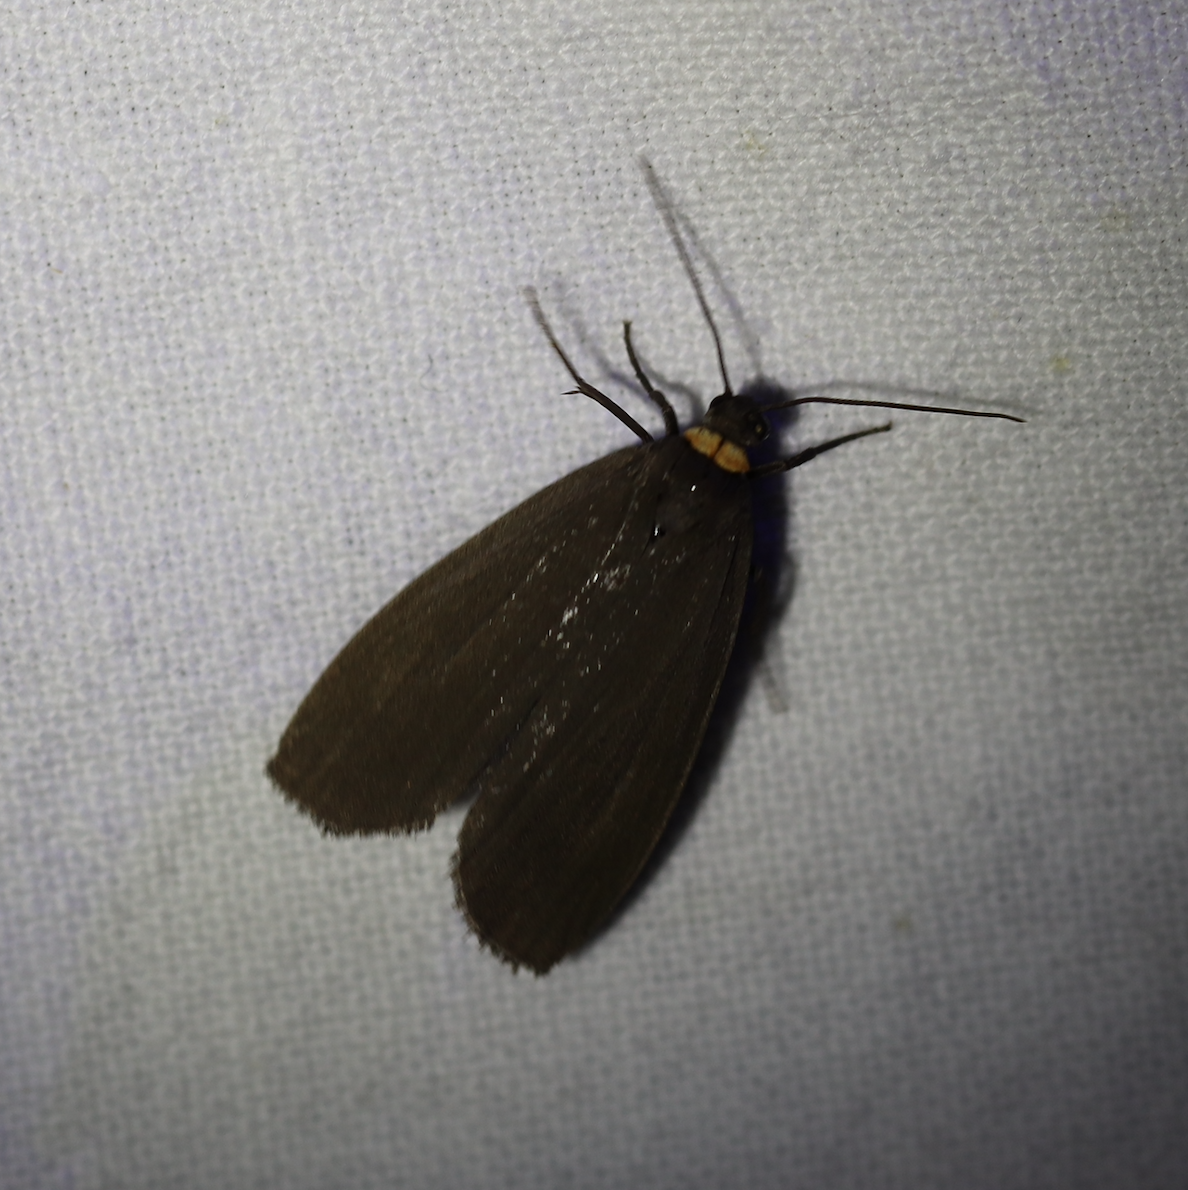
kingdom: Animalia
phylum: Arthropoda
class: Insecta
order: Lepidoptera
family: Erebidae
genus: Atolmis
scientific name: Atolmis rubricollis
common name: Red-necked footman
